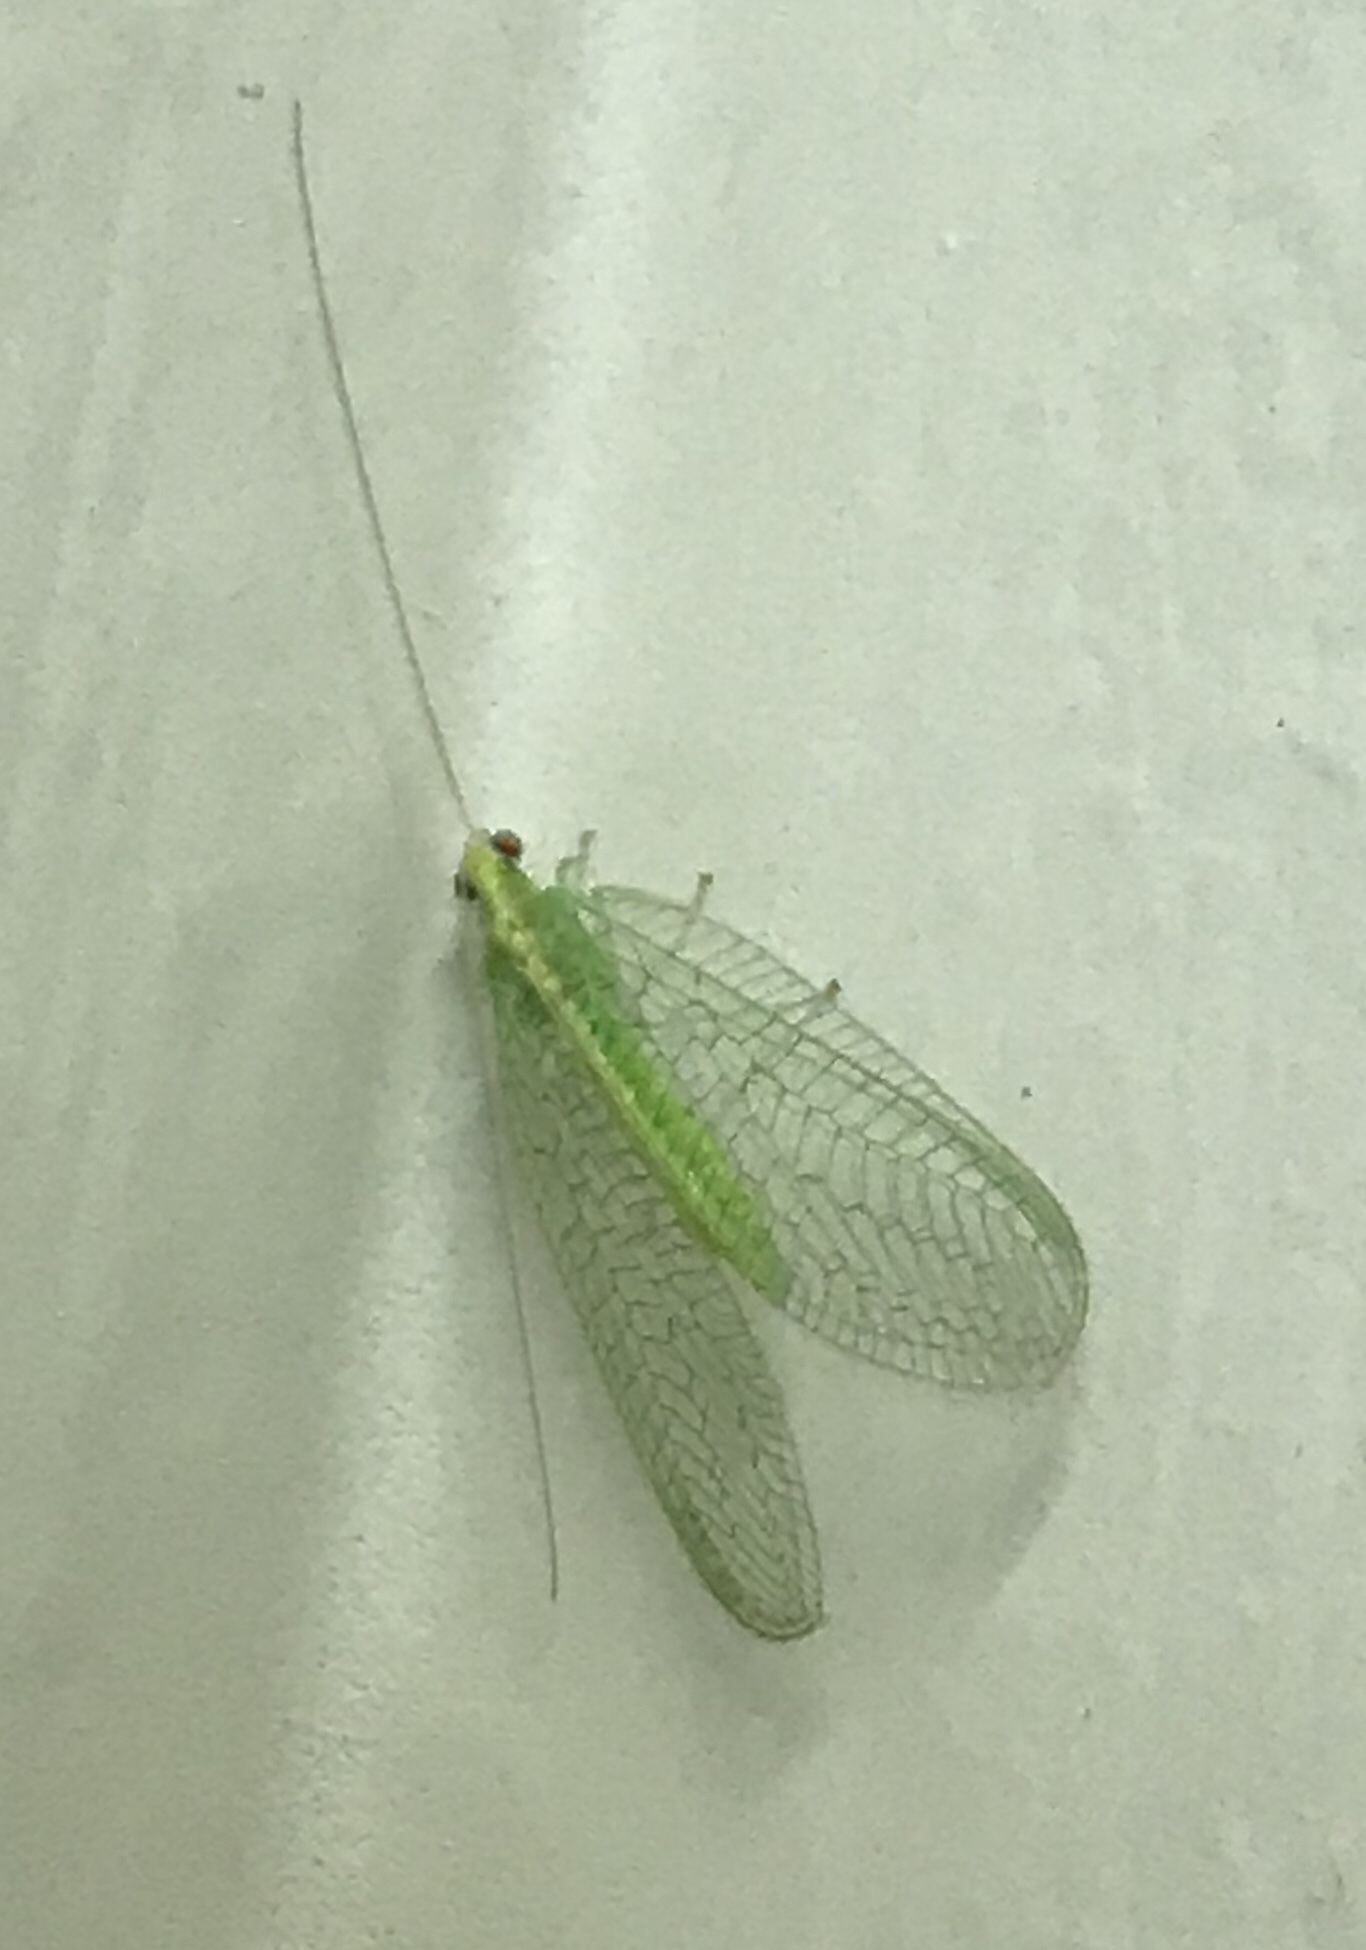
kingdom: Animalia
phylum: Arthropoda
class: Insecta
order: Neuroptera
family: Chrysopidae
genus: Chrysoperla
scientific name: Chrysoperla
